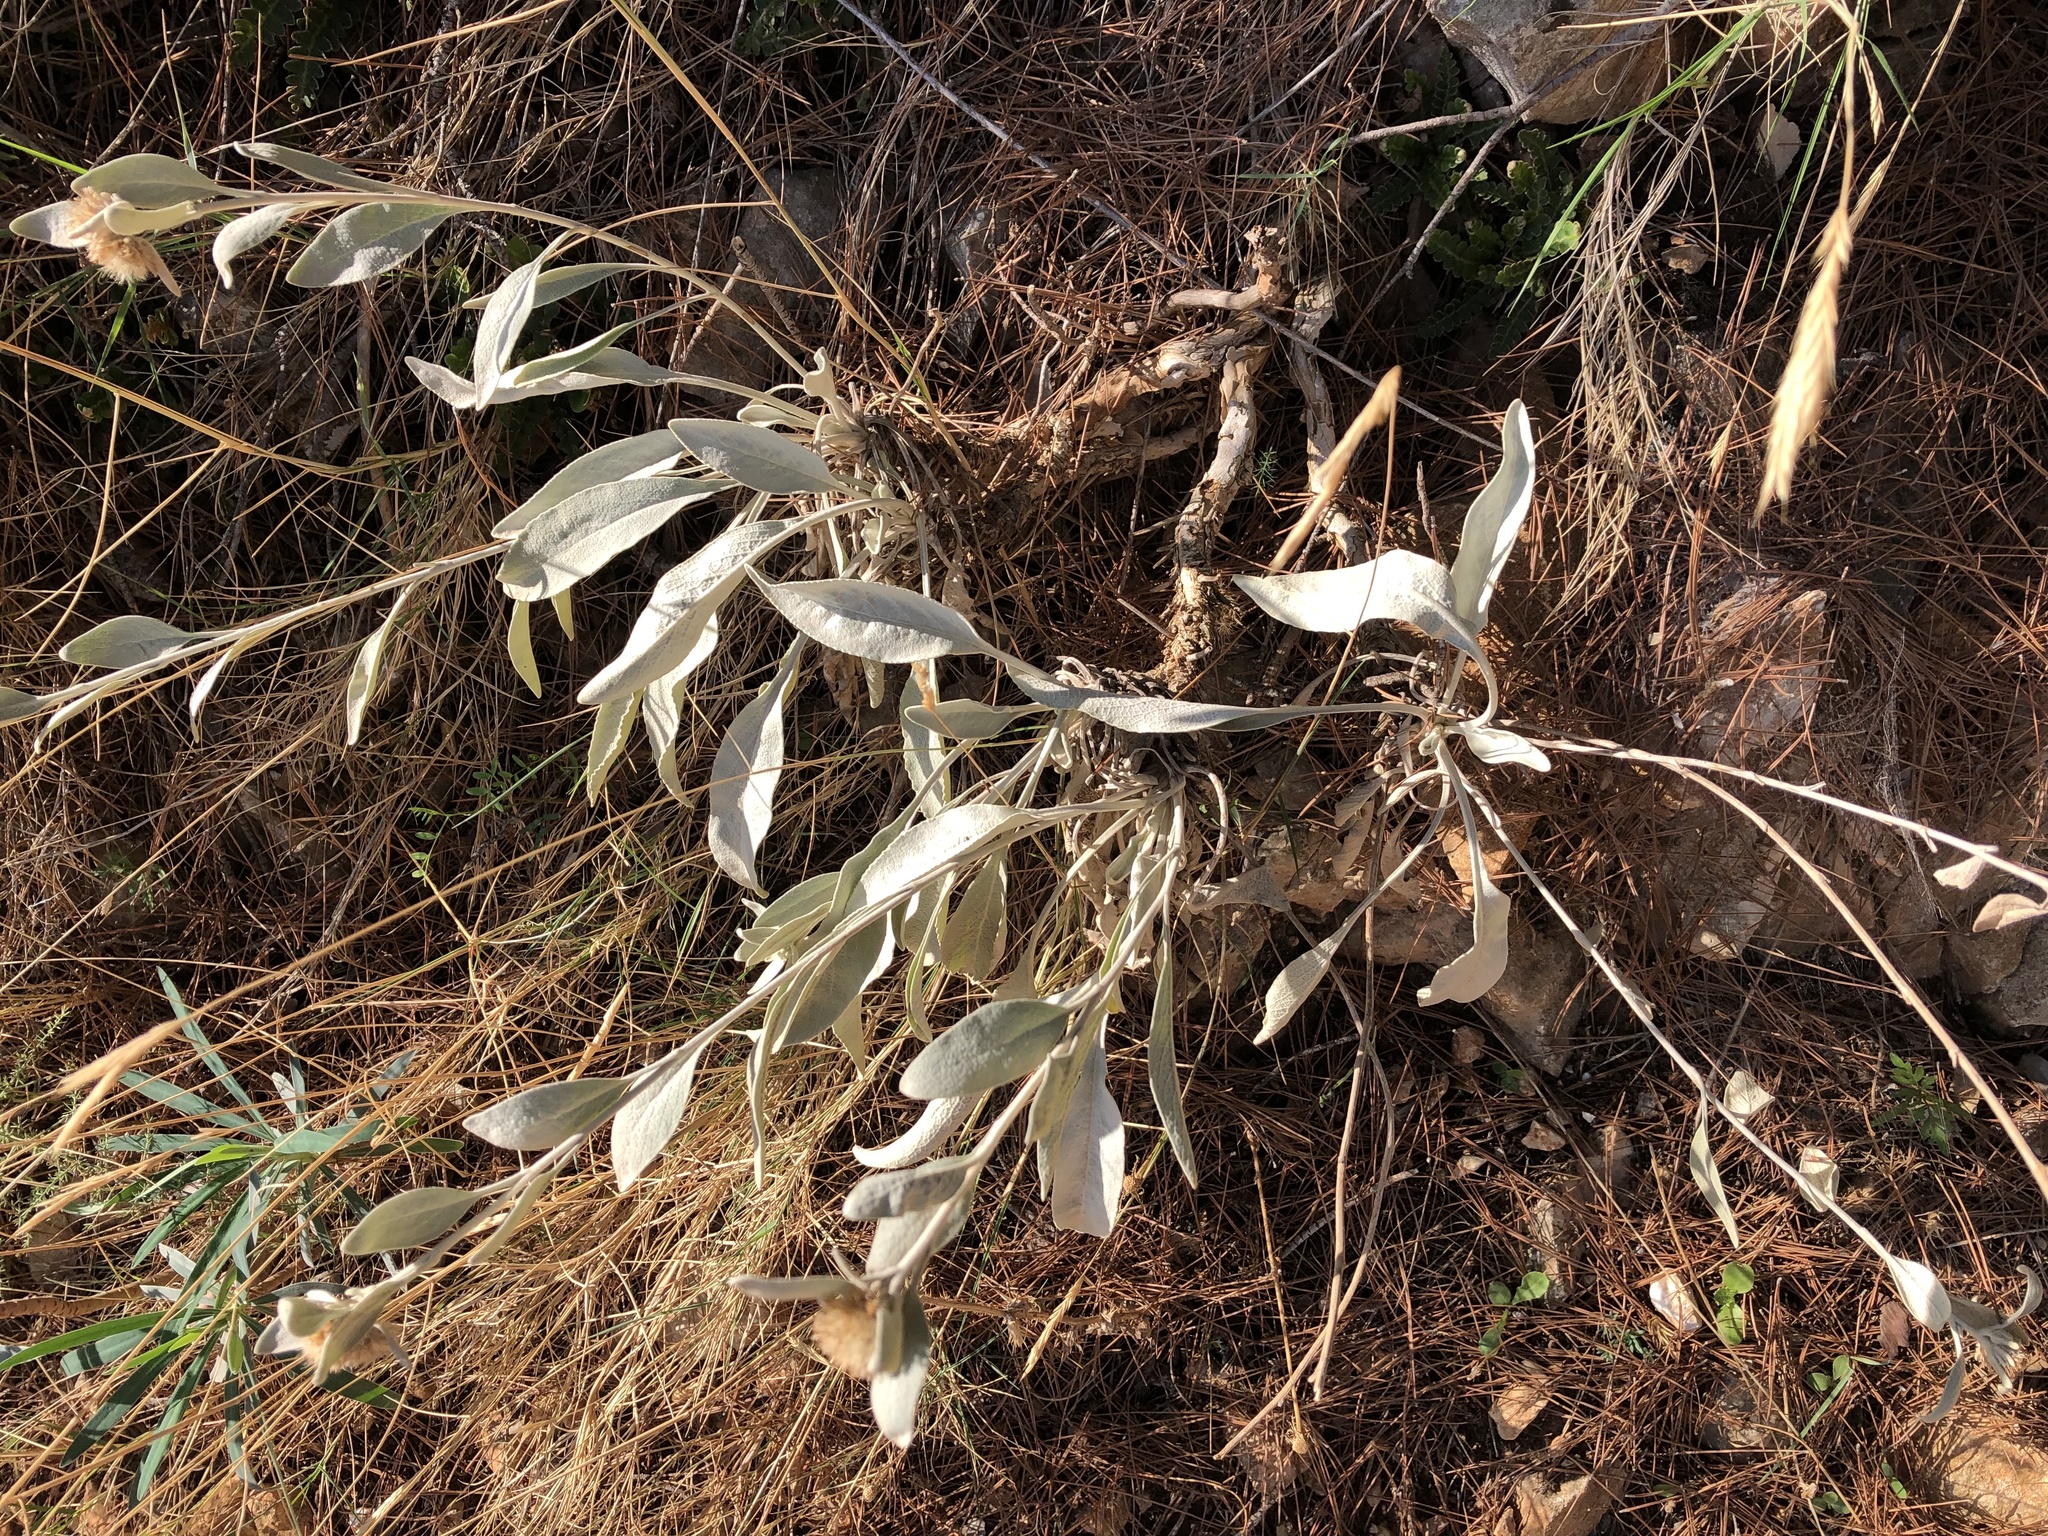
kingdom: Plantae
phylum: Tracheophyta
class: Magnoliopsida
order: Asterales
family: Asteraceae
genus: Pentanema
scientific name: Pentanema verbascifolium
